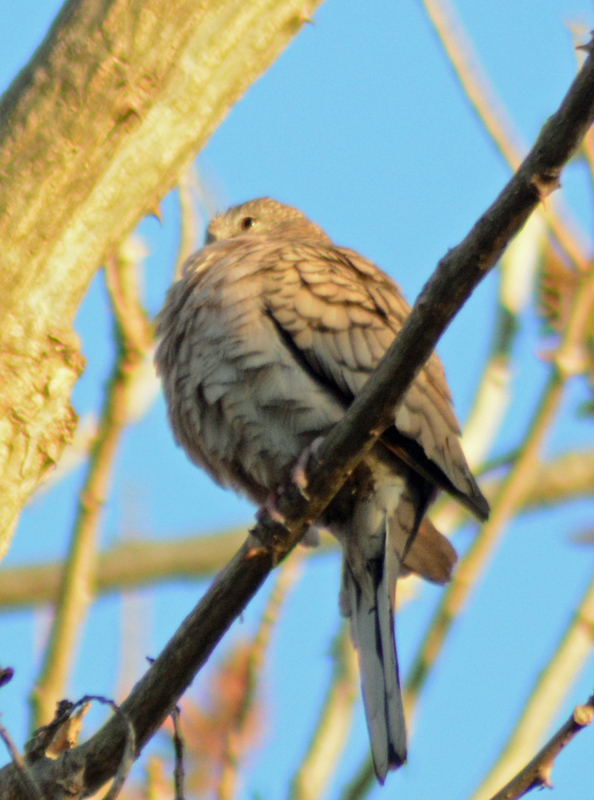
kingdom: Animalia
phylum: Chordata
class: Aves
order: Columbiformes
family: Columbidae
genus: Columbina
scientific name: Columbina inca
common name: Inca dove
